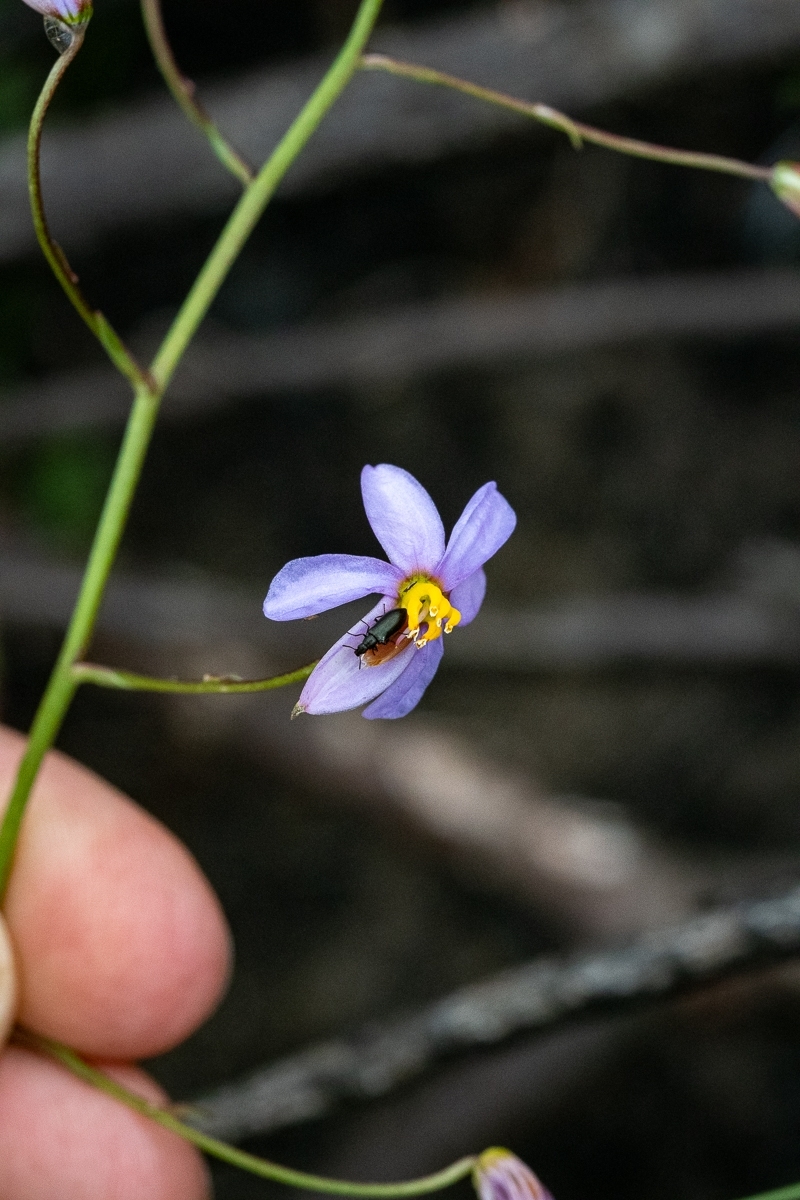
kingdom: Plantae
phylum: Tracheophyta
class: Liliopsida
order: Asparagales
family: Tecophilaeaceae
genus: Cyanella
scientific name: Cyanella hyacinthoides
